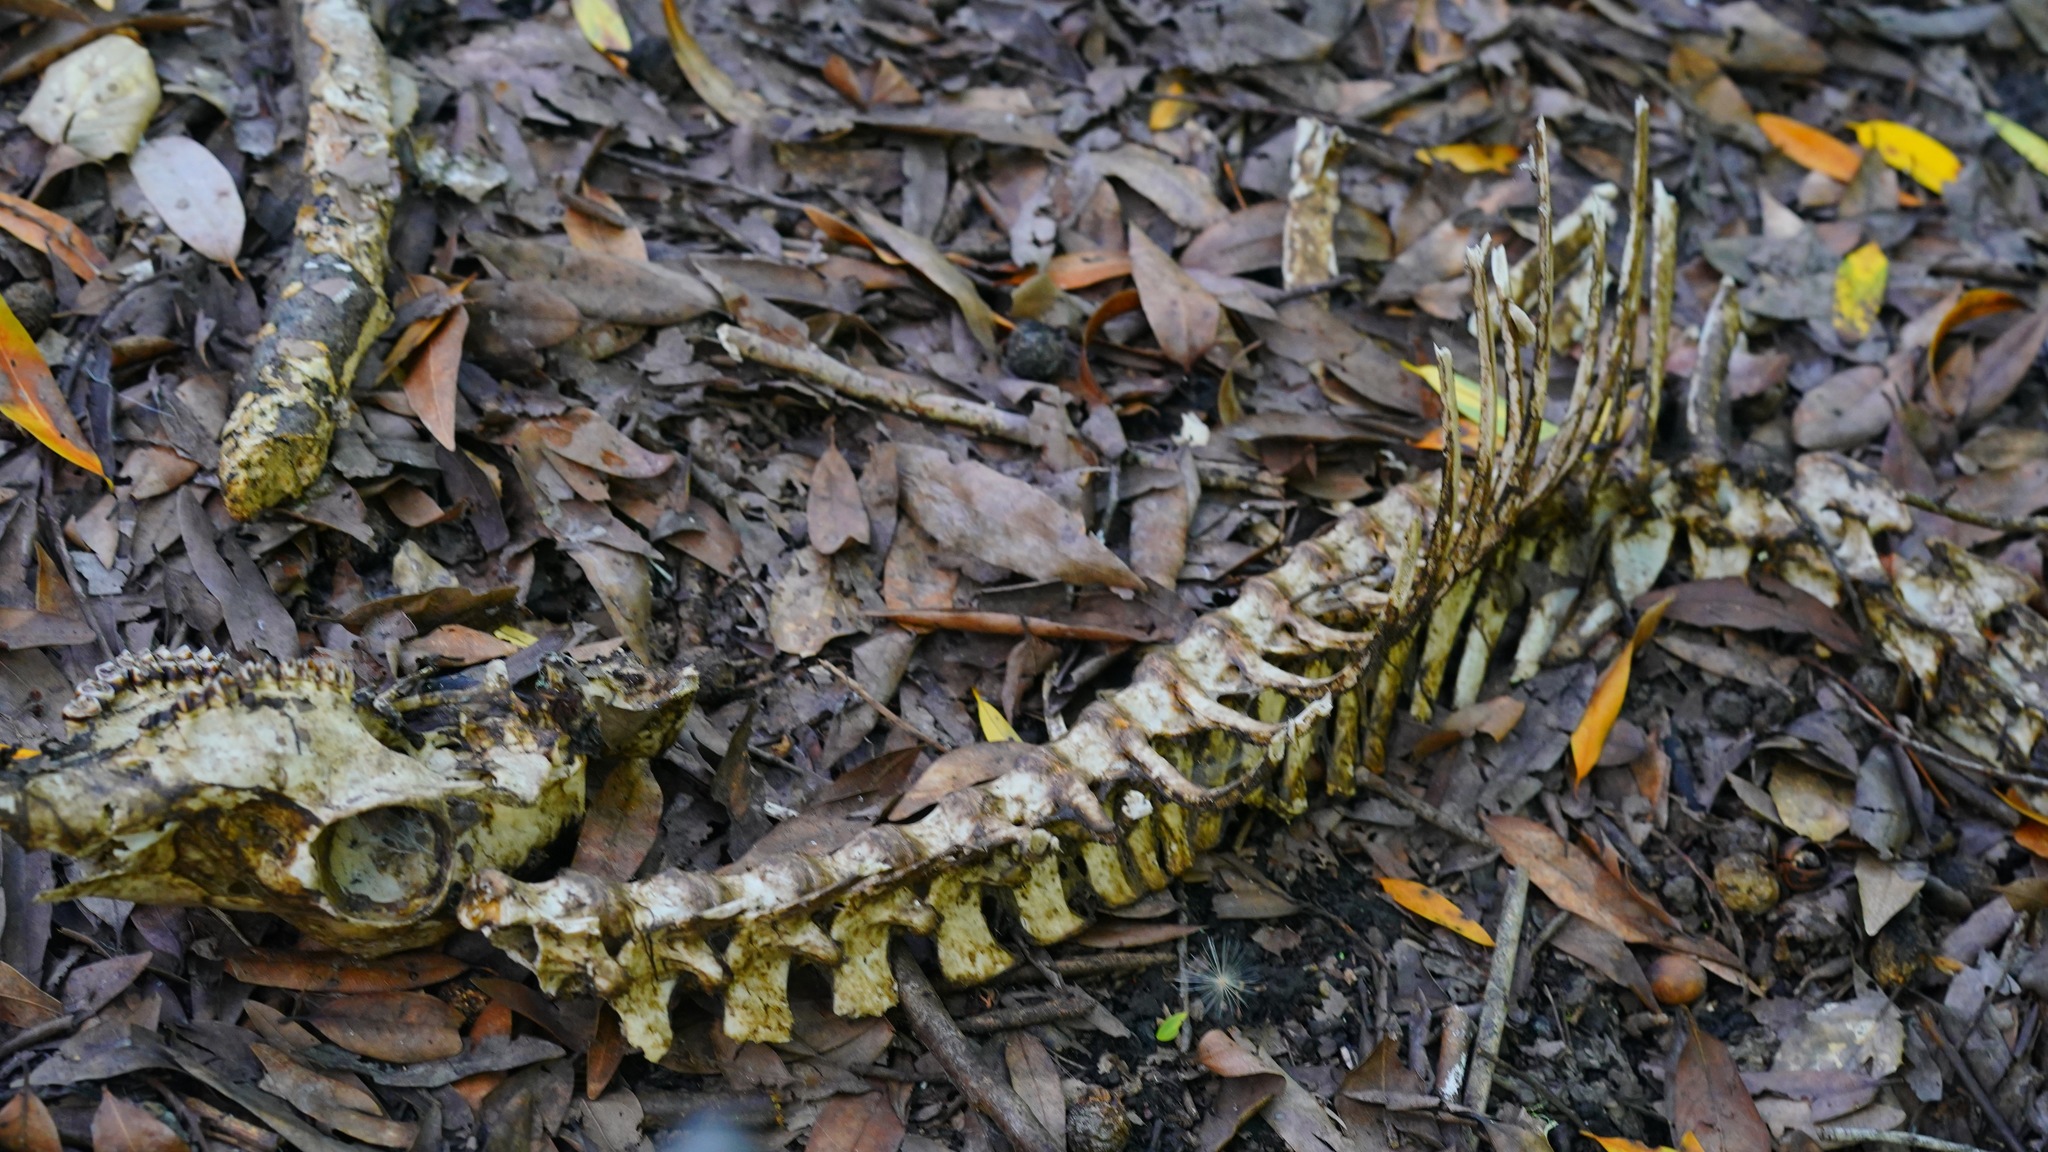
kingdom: Animalia
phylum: Chordata
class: Mammalia
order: Artiodactyla
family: Cervidae
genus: Odocoileus
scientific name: Odocoileus hemionus
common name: Mule deer
